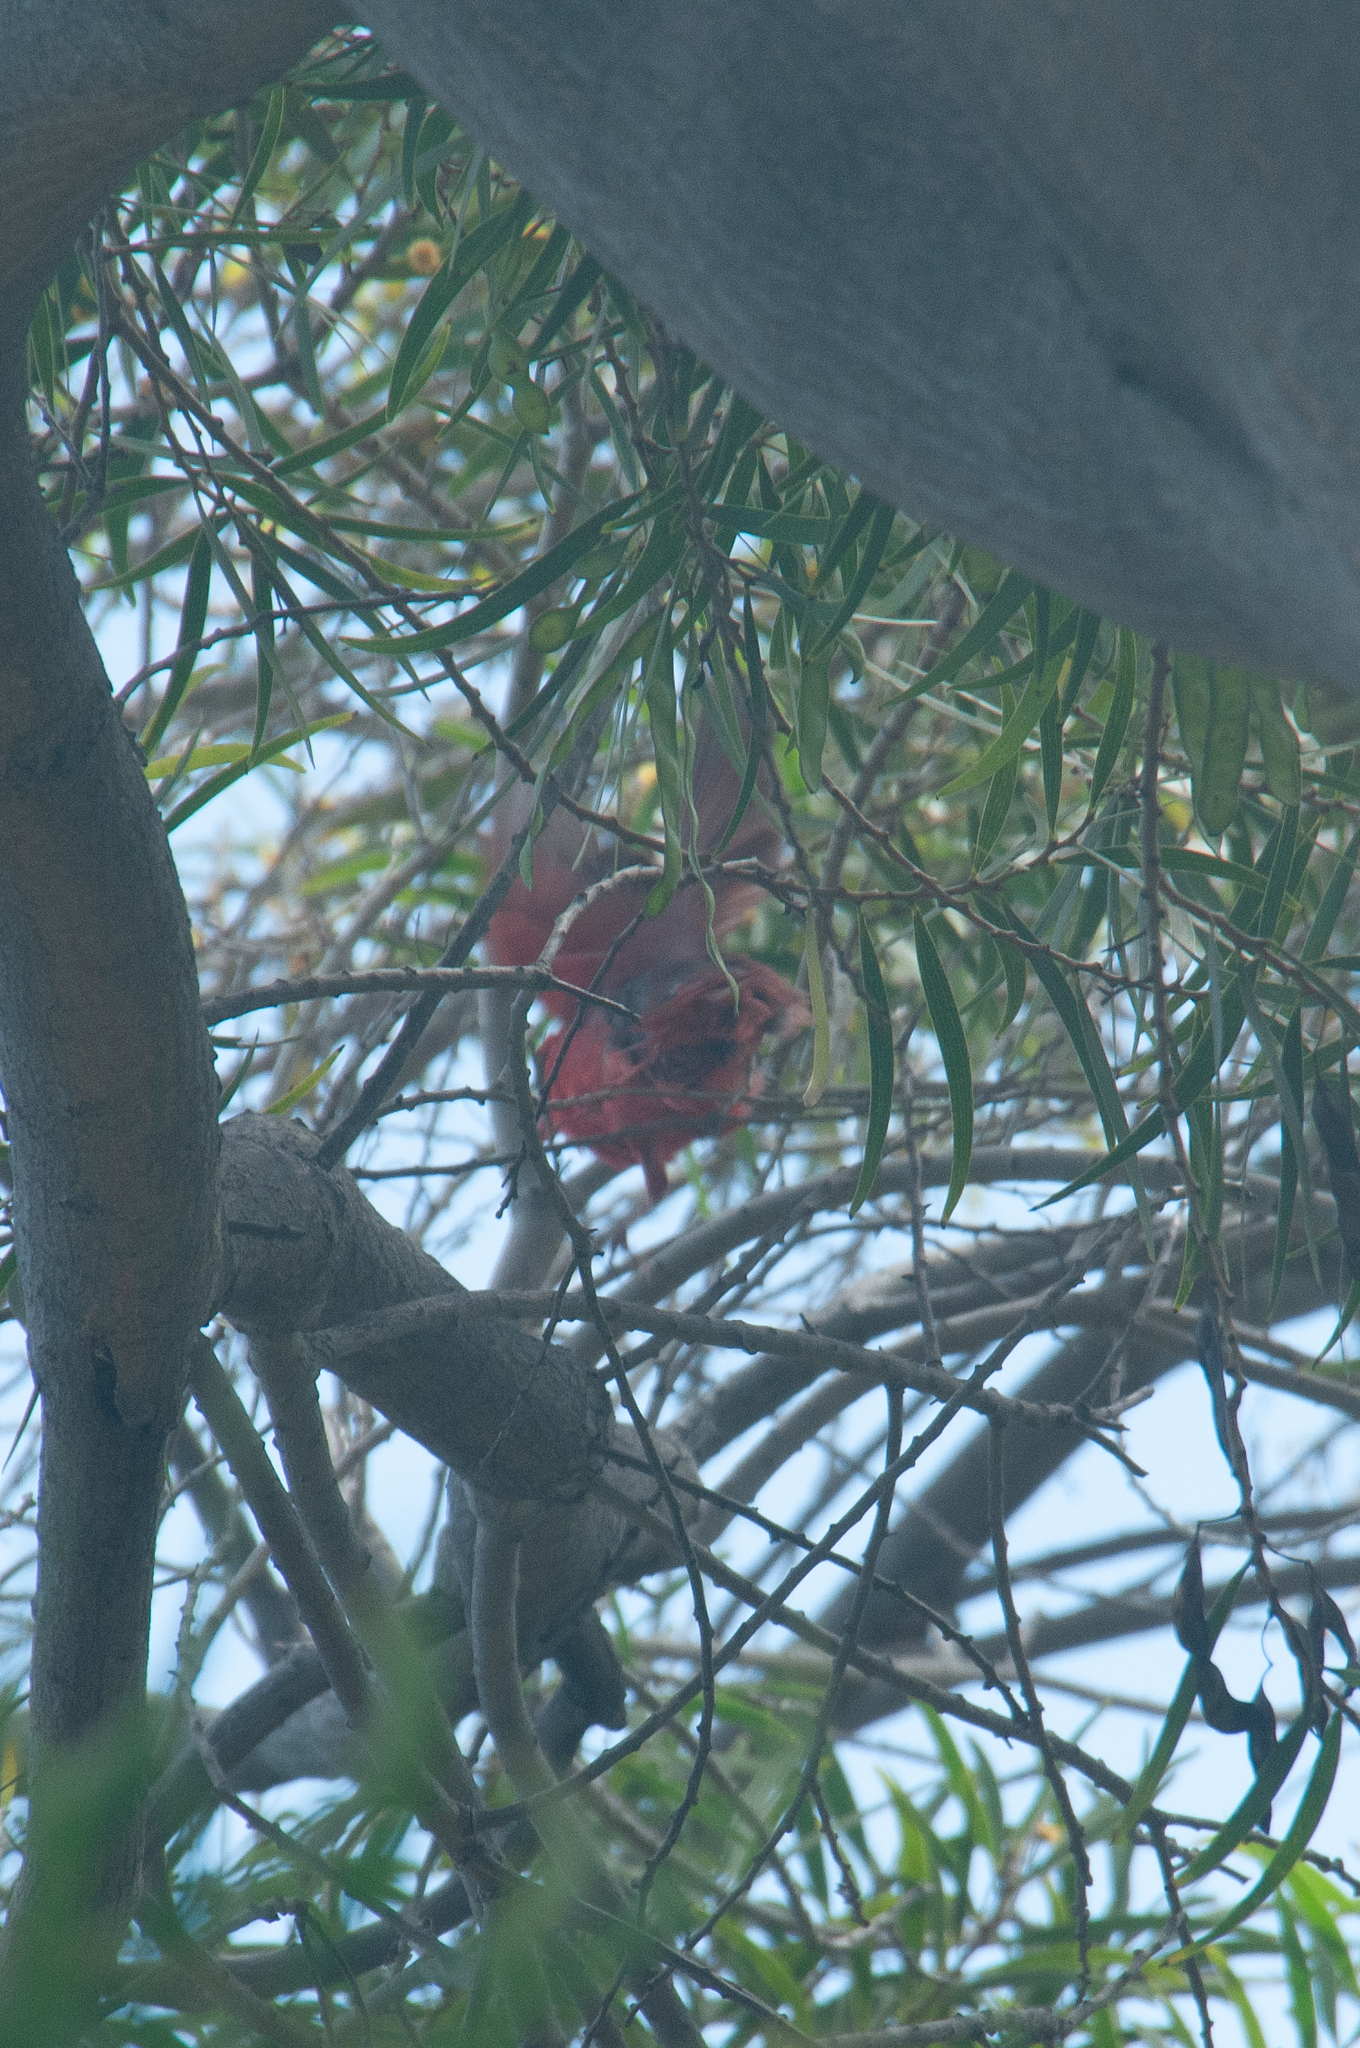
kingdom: Animalia
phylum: Chordata
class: Aves
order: Passeriformes
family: Cardinalidae
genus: Cardinalis
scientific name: Cardinalis cardinalis
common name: Northern cardinal
